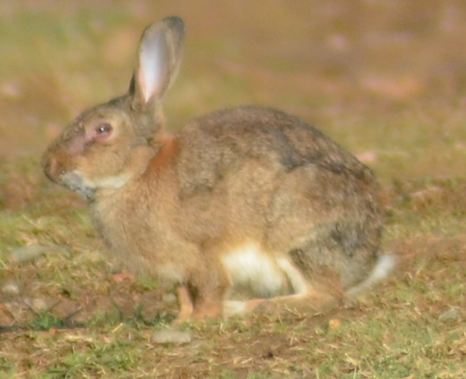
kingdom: Animalia
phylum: Chordata
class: Mammalia
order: Lagomorpha
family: Leporidae
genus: Oryctolagus
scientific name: Oryctolagus cuniculus
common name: European rabbit
